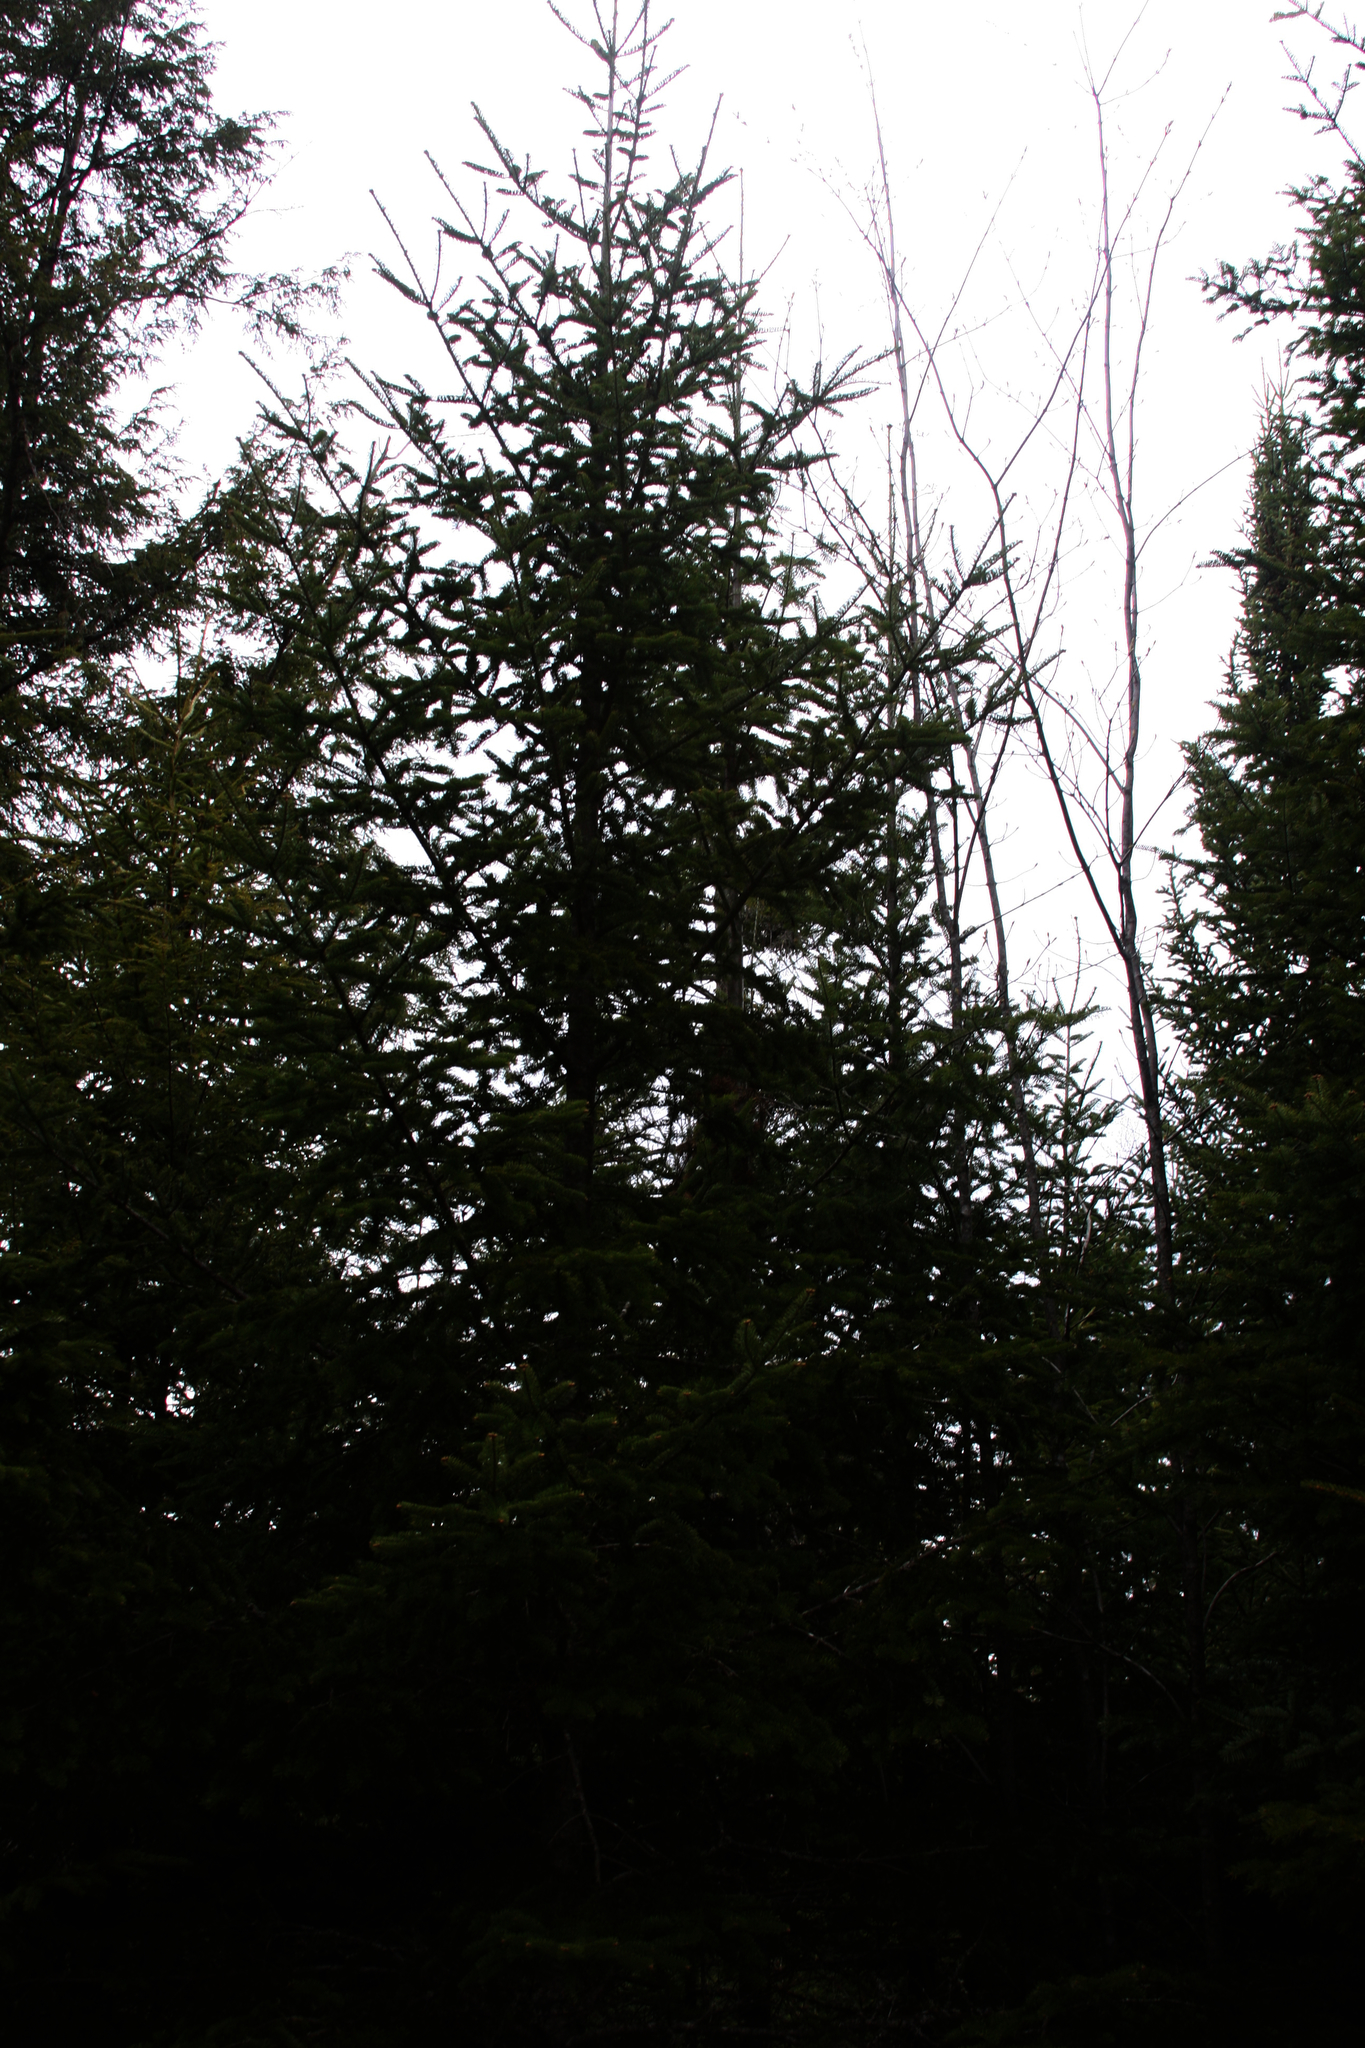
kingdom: Plantae
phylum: Tracheophyta
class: Pinopsida
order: Pinales
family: Pinaceae
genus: Abies
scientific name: Abies balsamea
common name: Balsam fir
